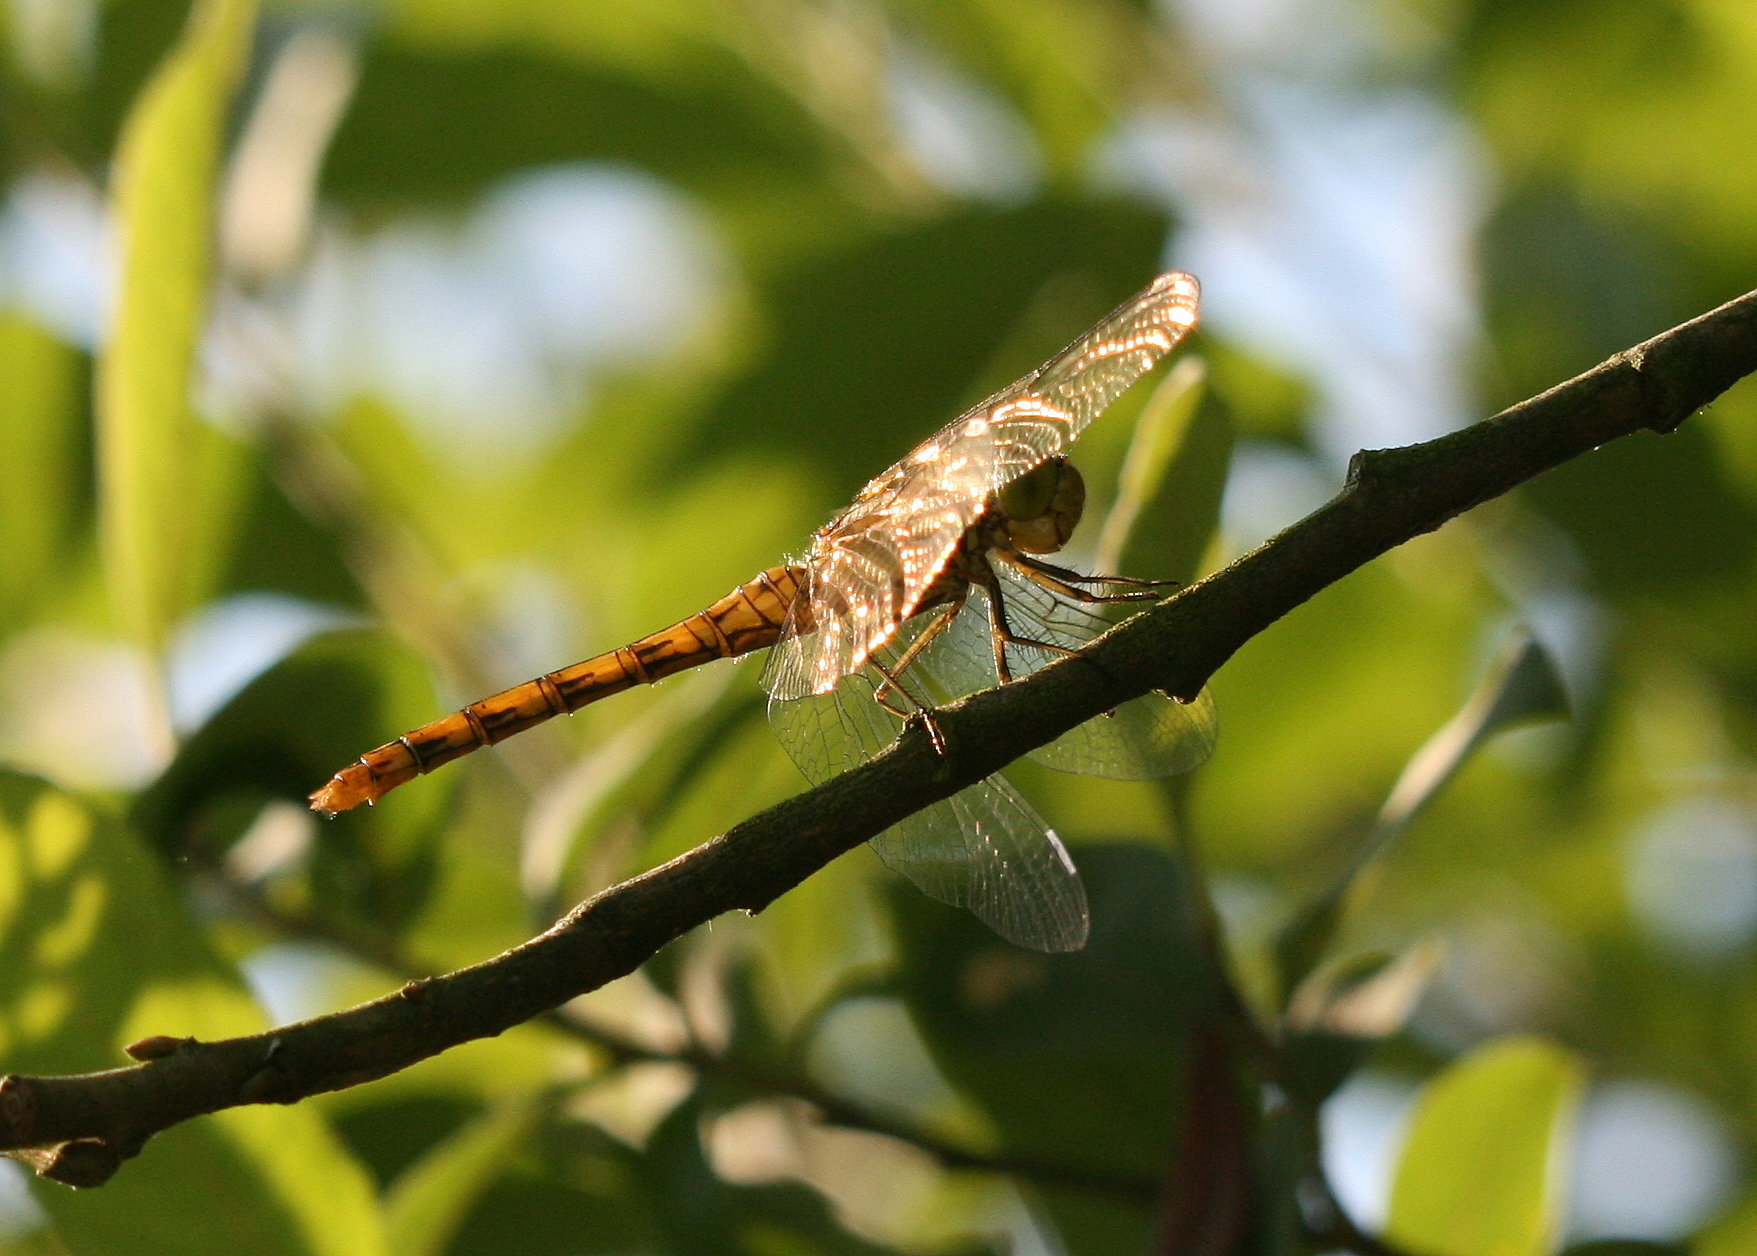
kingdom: Animalia
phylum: Arthropoda
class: Insecta
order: Odonata
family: Libellulidae
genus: Sympetrum
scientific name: Sympetrum striolatum
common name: Common darter
